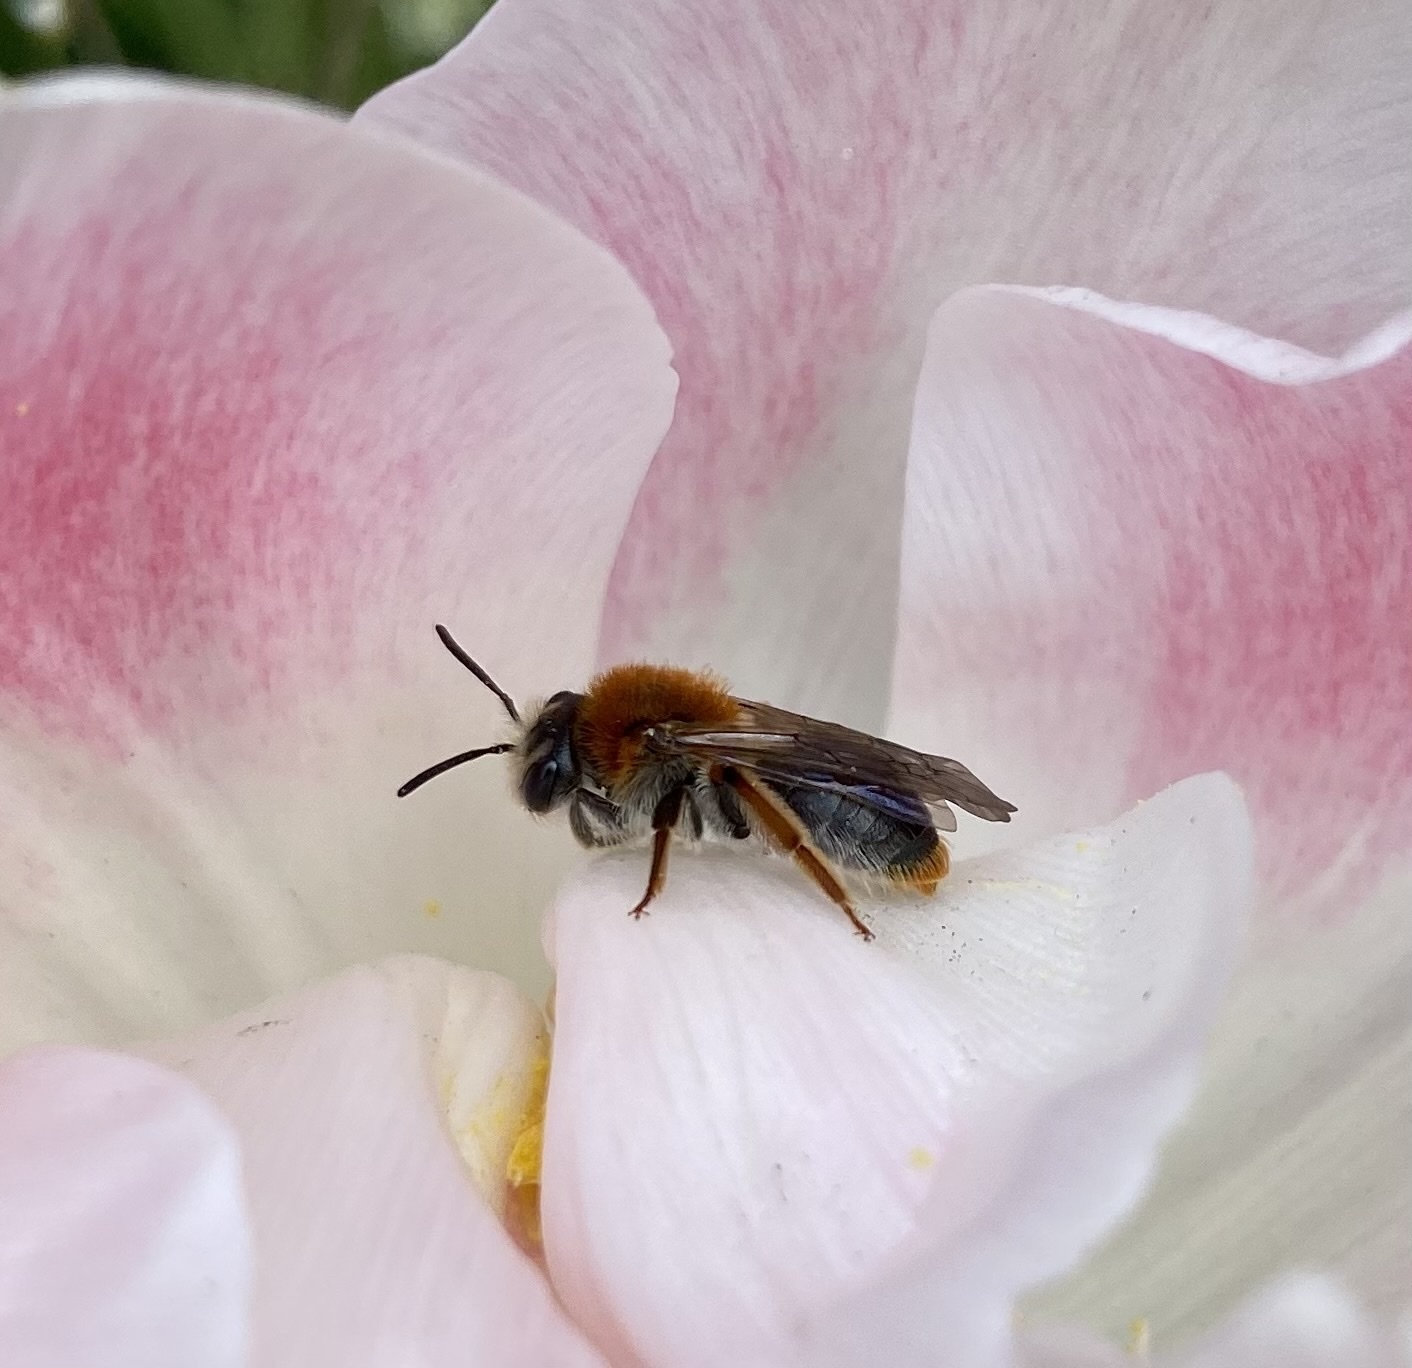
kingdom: Animalia
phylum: Arthropoda
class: Insecta
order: Hymenoptera
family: Andrenidae
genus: Andrena
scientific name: Andrena haemorrhoa
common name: Early mining bee
